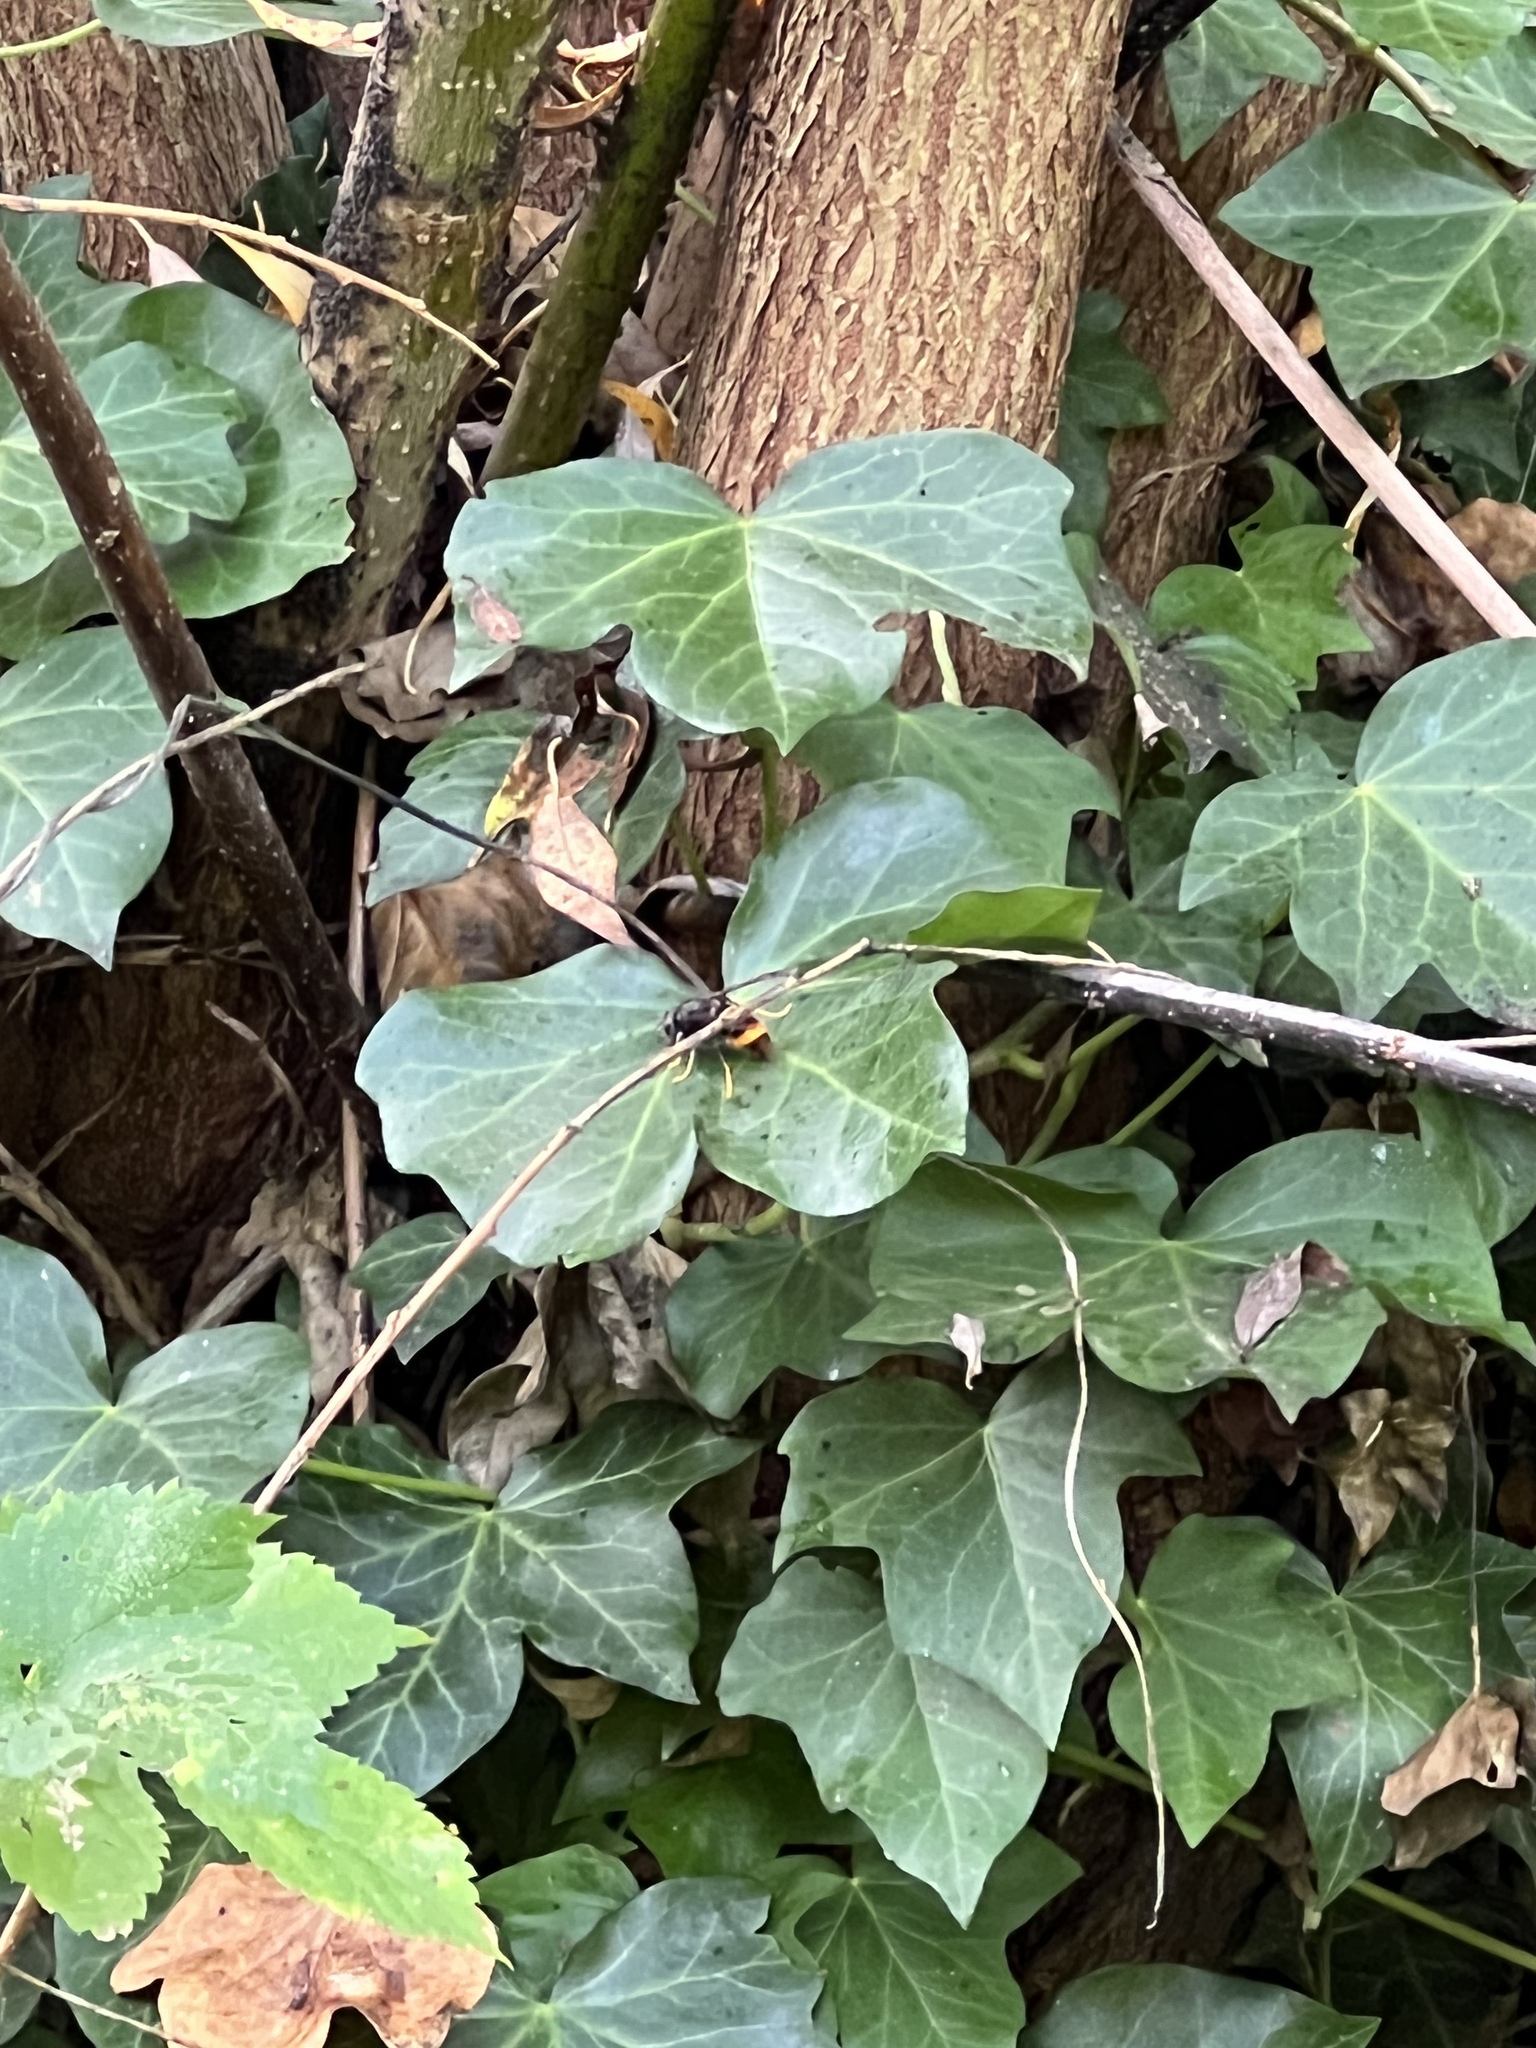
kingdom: Animalia
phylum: Arthropoda
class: Insecta
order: Hymenoptera
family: Vespidae
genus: Vespa
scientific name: Vespa velutina
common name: Asian hornet
